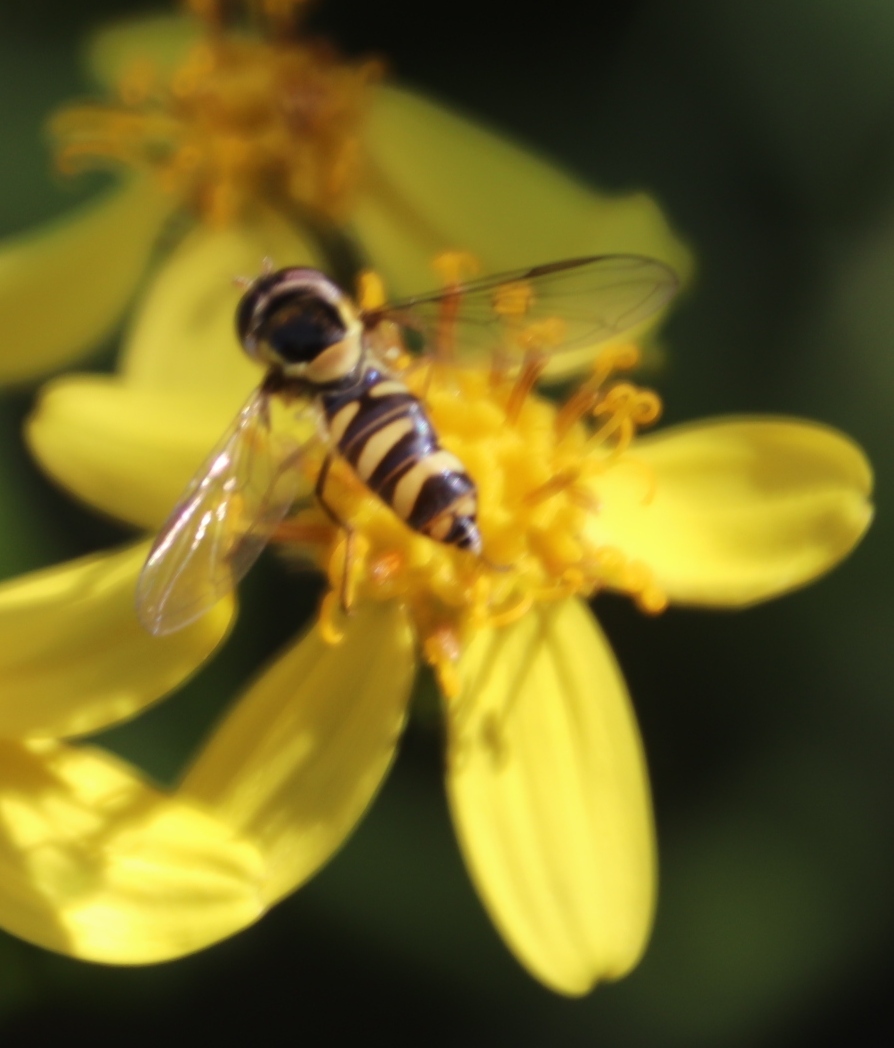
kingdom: Animalia
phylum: Arthropoda
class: Insecta
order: Diptera
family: Syrphidae
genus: Ischiodon
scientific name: Ischiodon aegyptius
